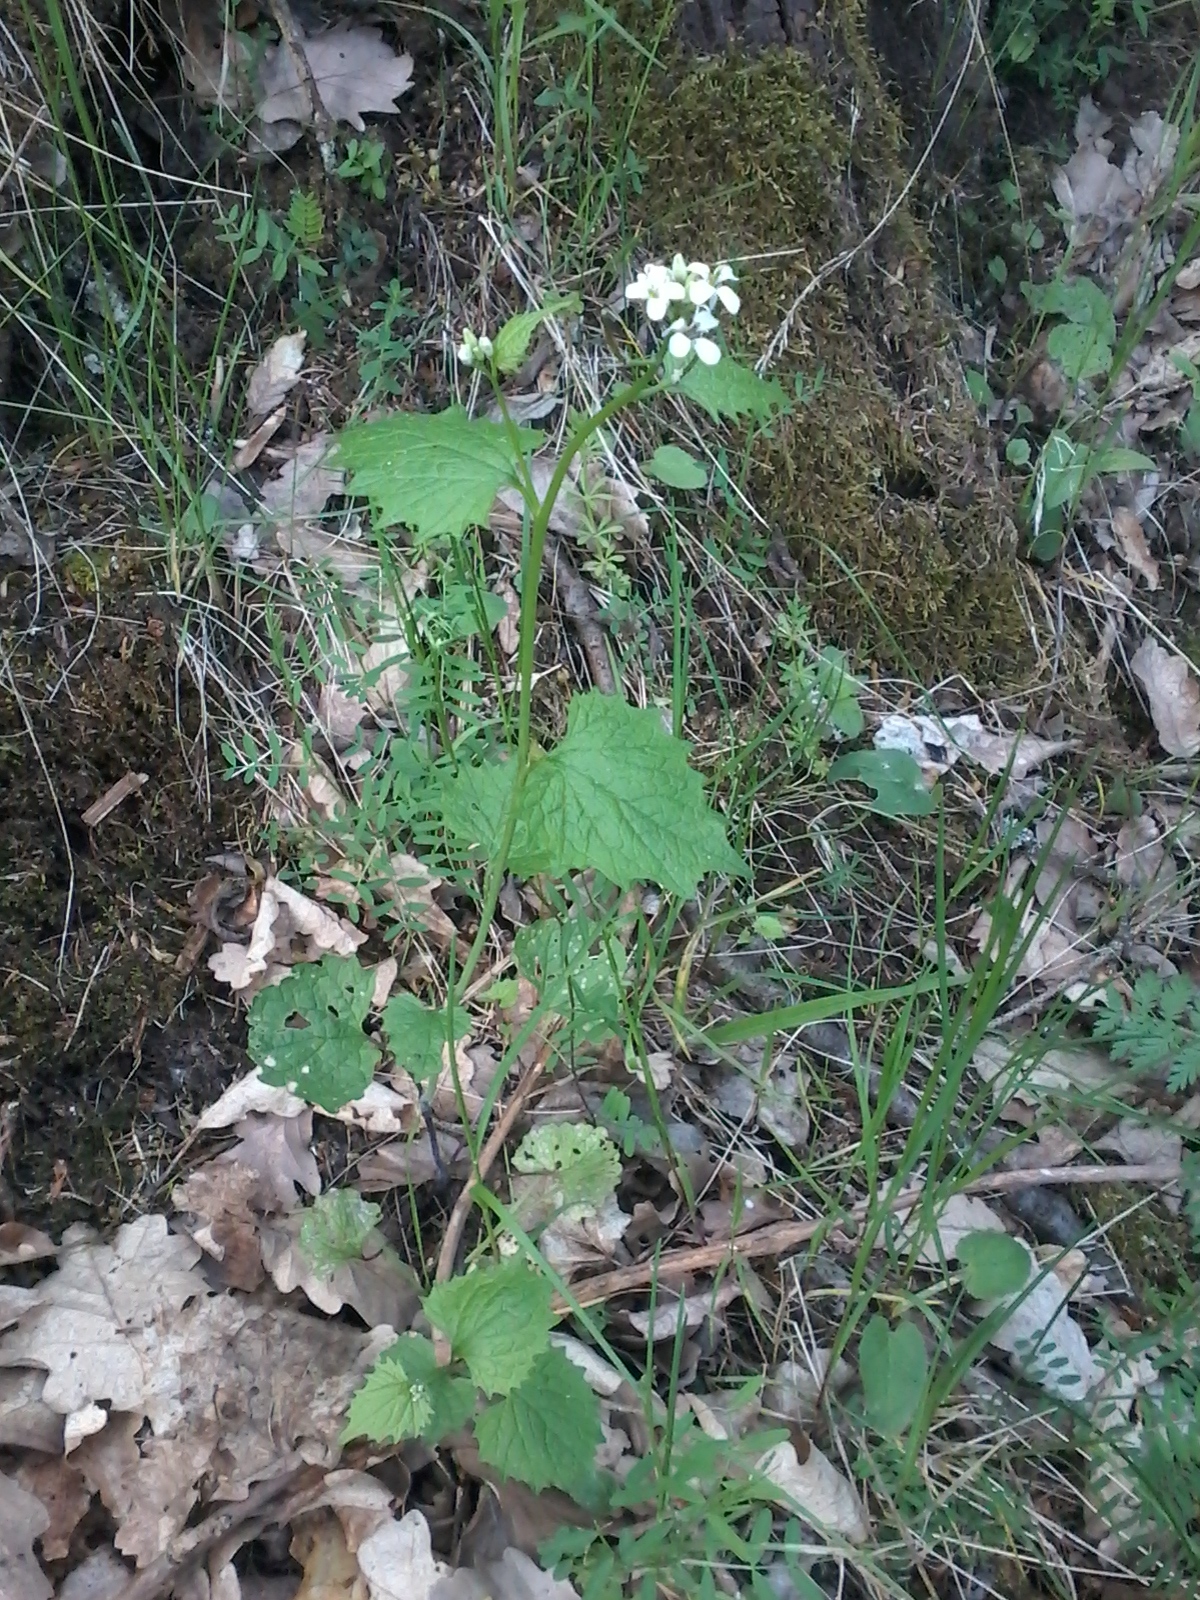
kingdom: Plantae
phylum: Tracheophyta
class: Magnoliopsida
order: Brassicales
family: Brassicaceae
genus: Alliaria
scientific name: Alliaria petiolata
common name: Garlic mustard
